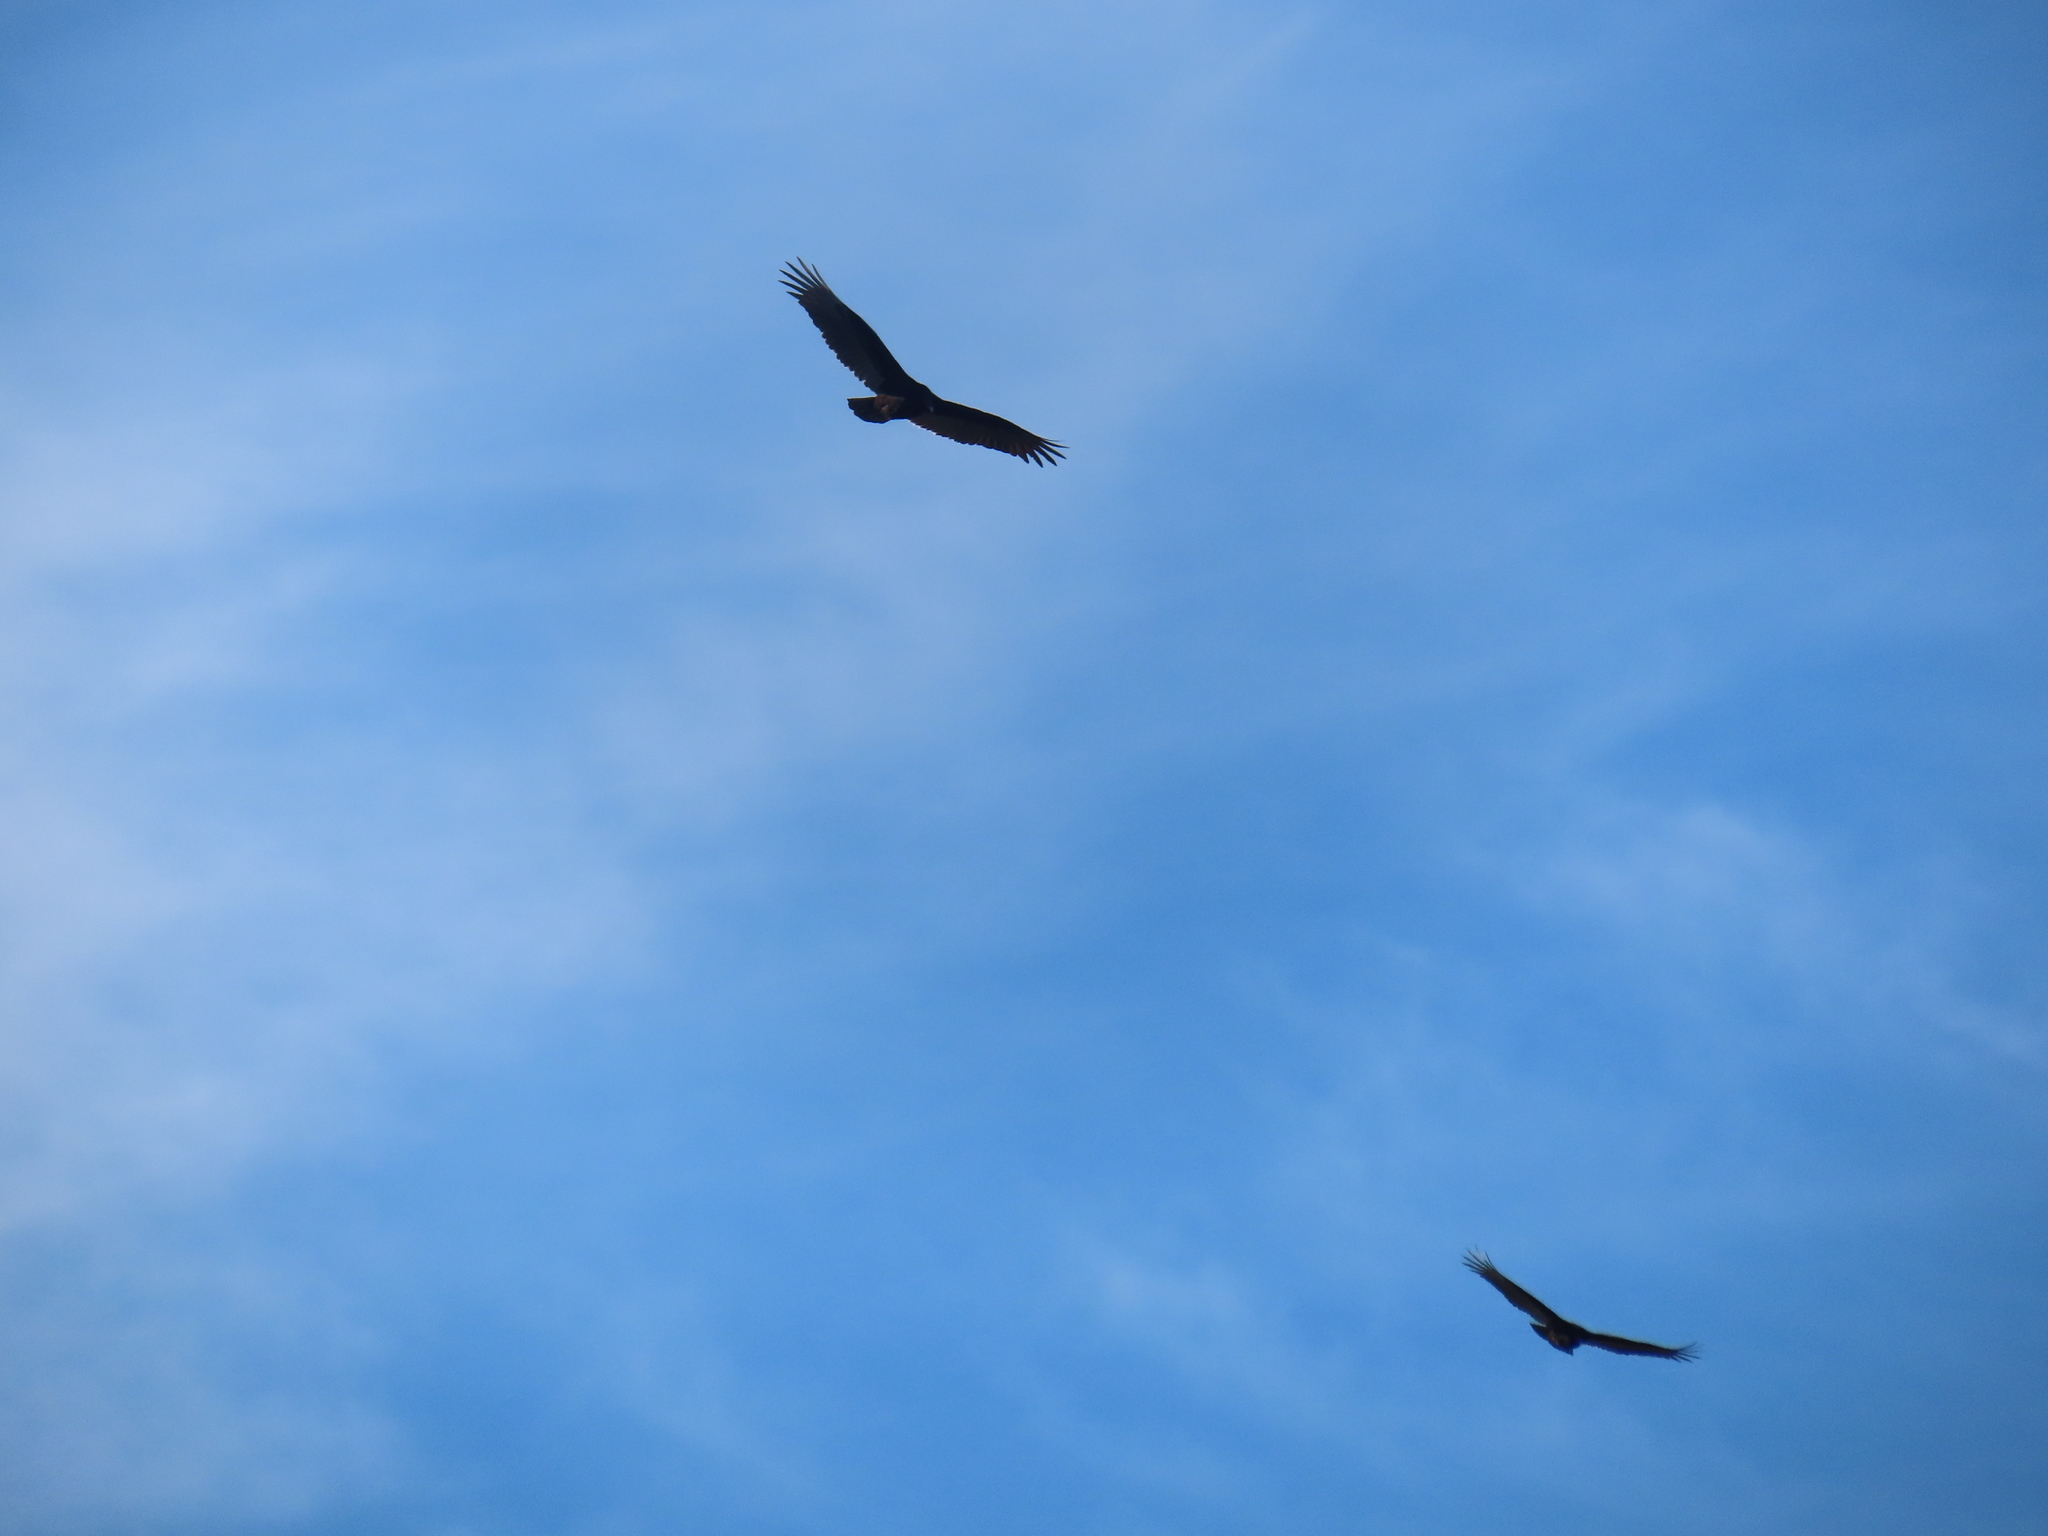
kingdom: Animalia
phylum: Chordata
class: Aves
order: Accipitriformes
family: Cathartidae
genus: Cathartes
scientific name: Cathartes aura
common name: Turkey vulture
